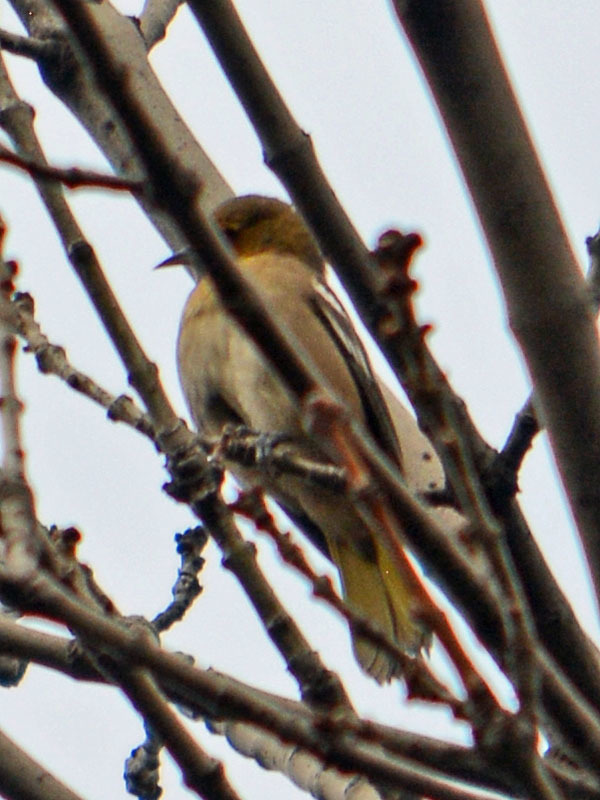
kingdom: Animalia
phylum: Chordata
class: Aves
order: Passeriformes
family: Icteridae
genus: Icterus
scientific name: Icterus bullockii
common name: Bullock's oriole
